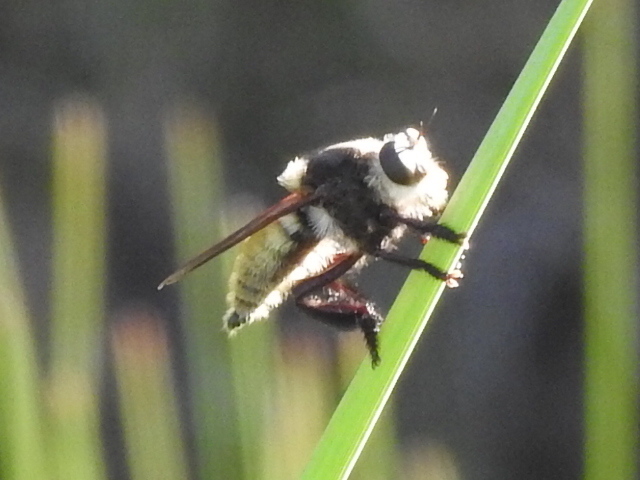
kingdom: Animalia
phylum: Arthropoda
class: Insecta
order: Diptera
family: Asilidae
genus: Mallophora
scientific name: Mallophora fautrix
